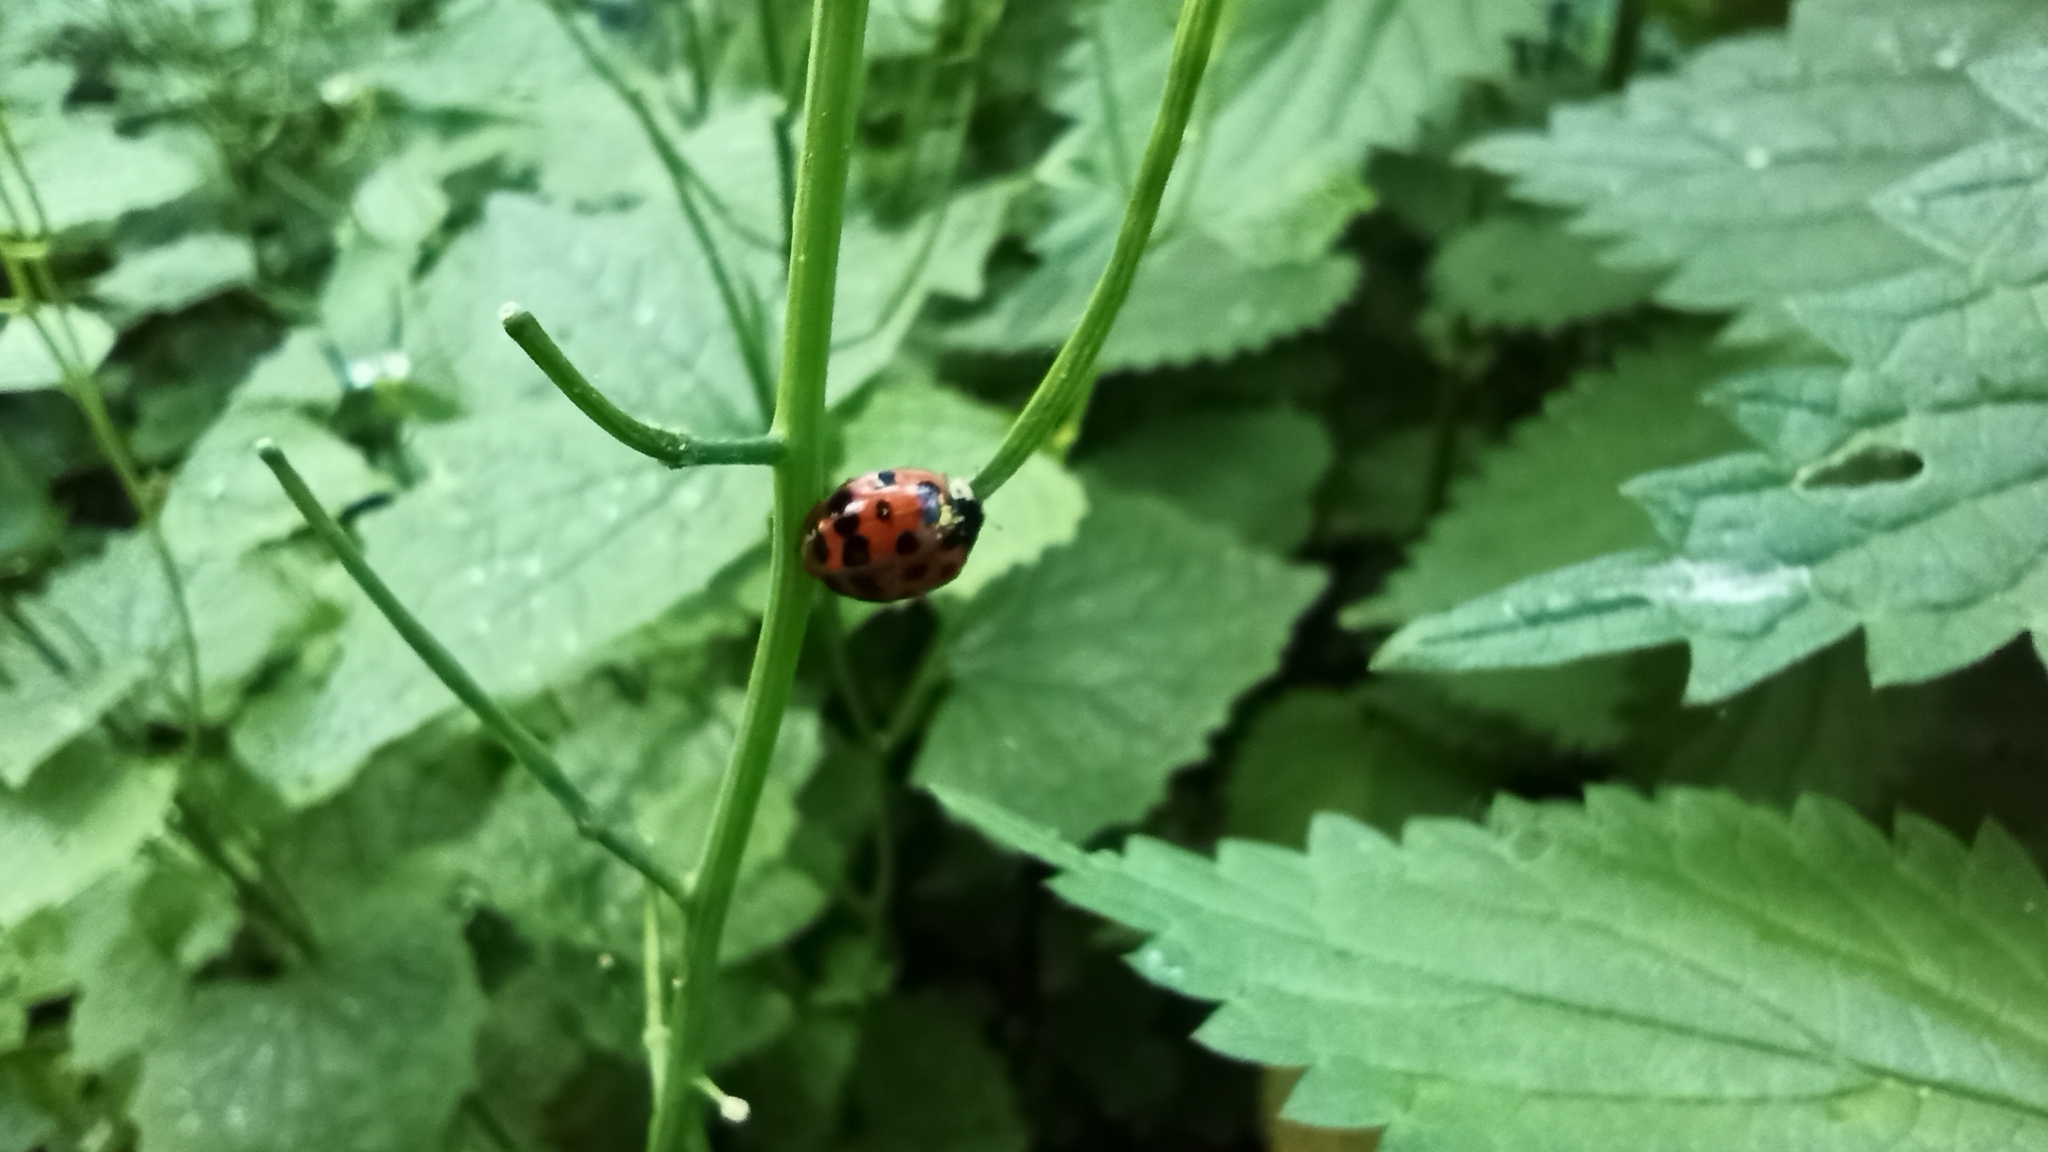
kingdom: Animalia
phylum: Arthropoda
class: Insecta
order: Coleoptera
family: Coccinellidae
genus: Harmonia
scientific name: Harmonia axyridis
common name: Harlequin ladybird
